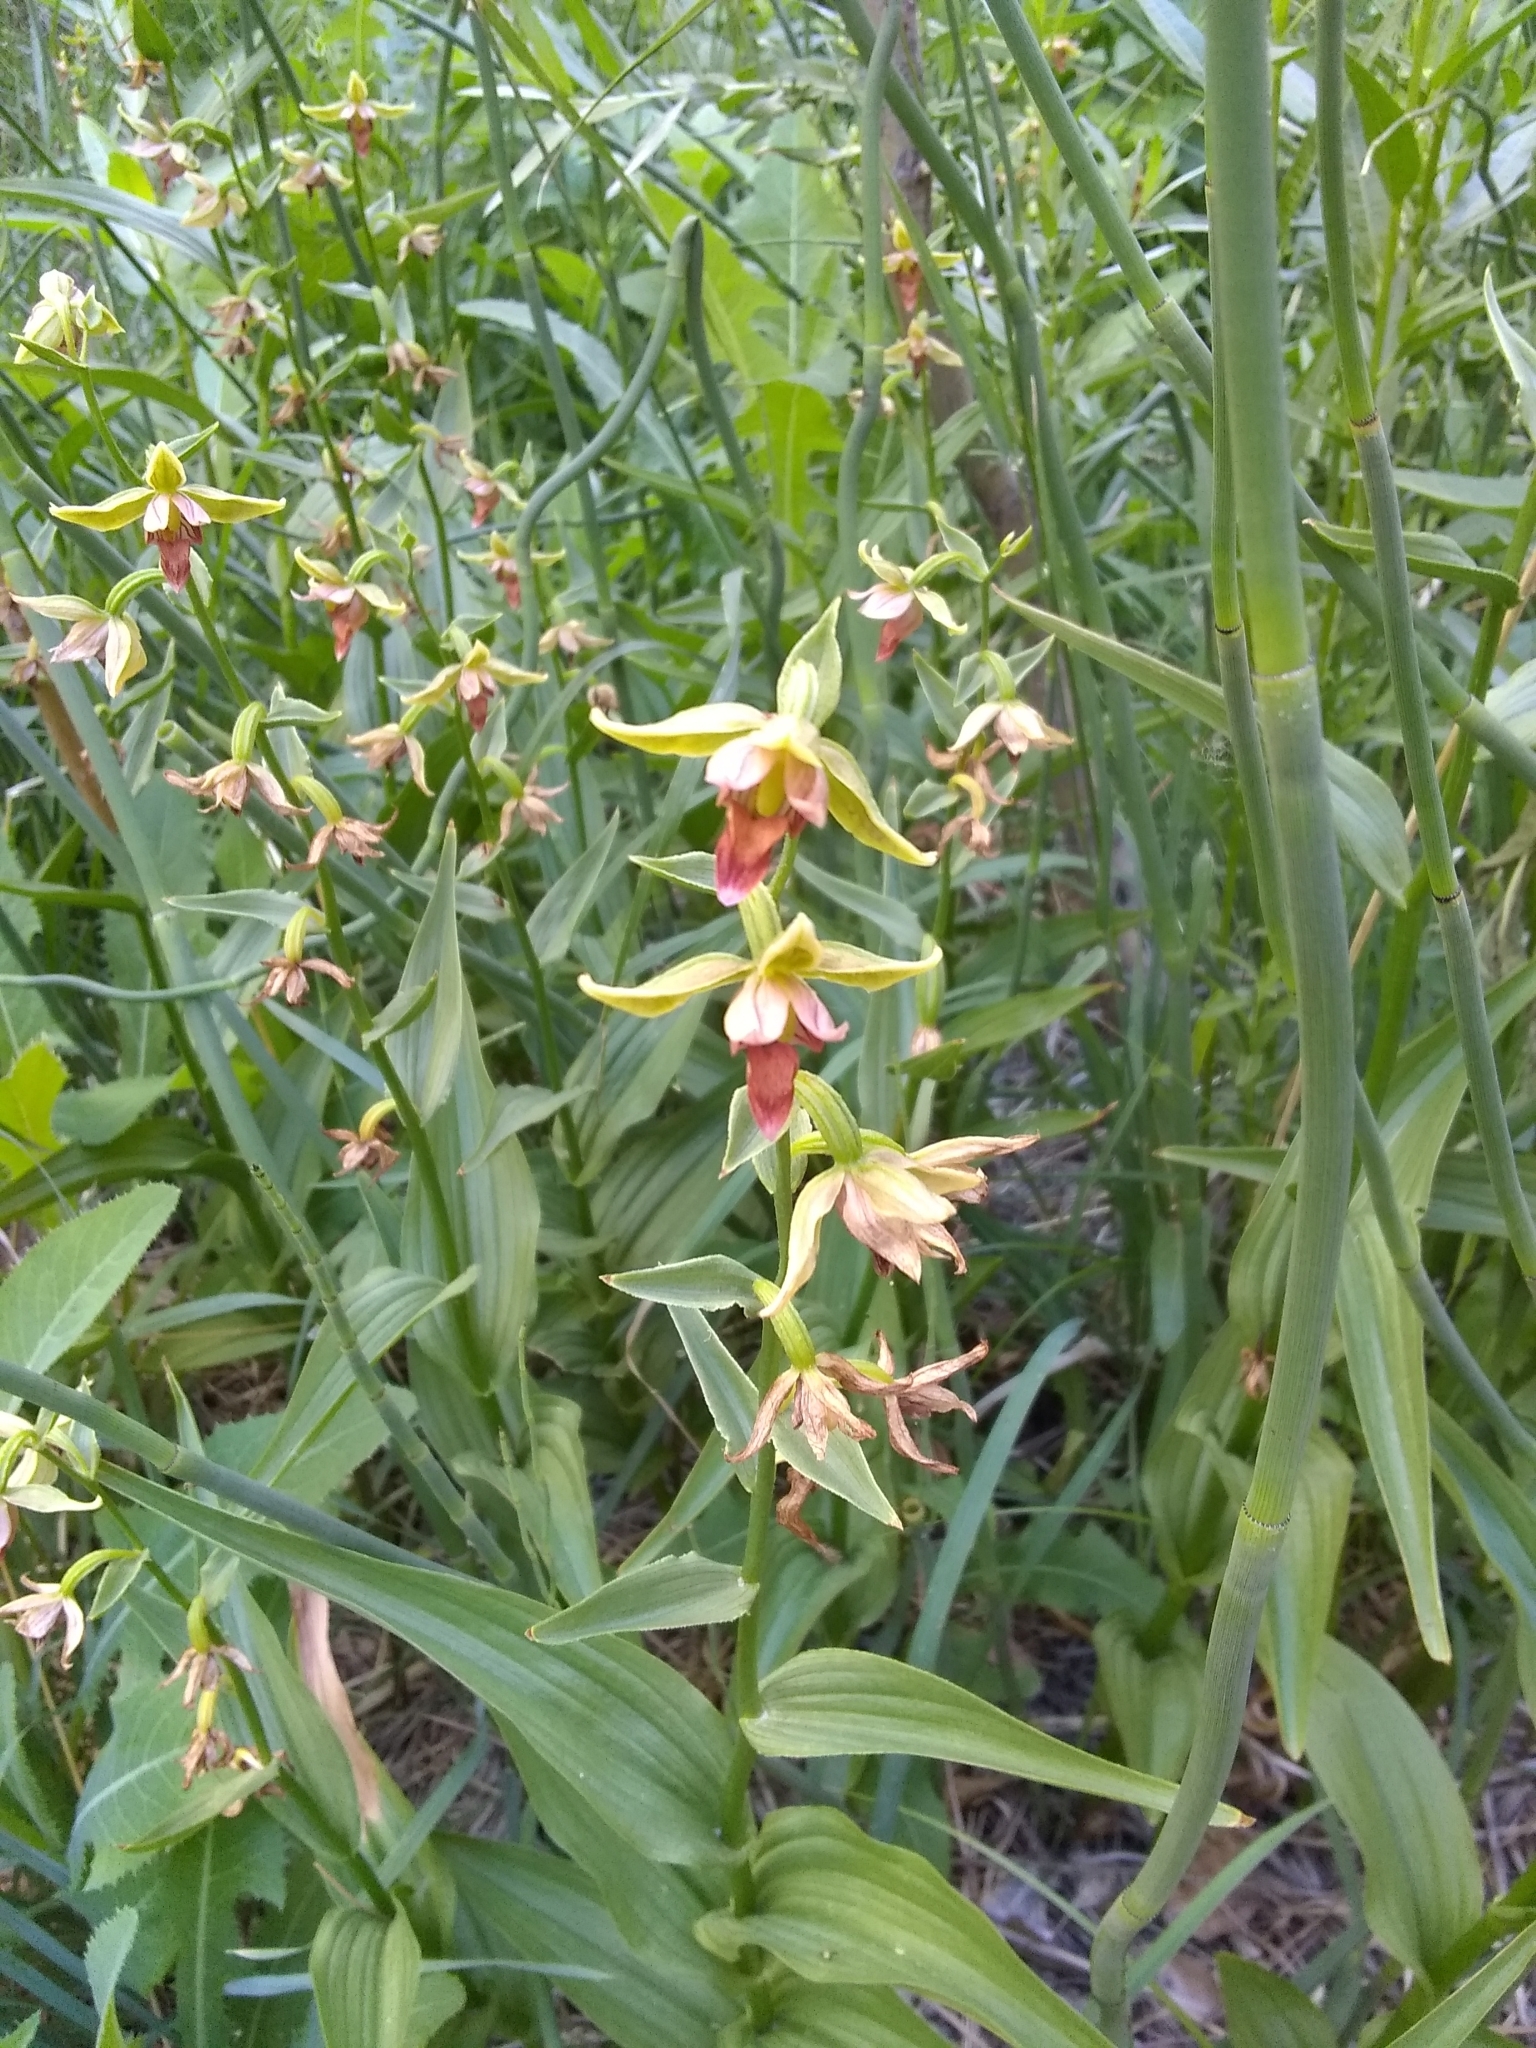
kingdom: Plantae
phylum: Tracheophyta
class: Liliopsida
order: Asparagales
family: Orchidaceae
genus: Epipactis
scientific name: Epipactis gigantea
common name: Chatterbox
